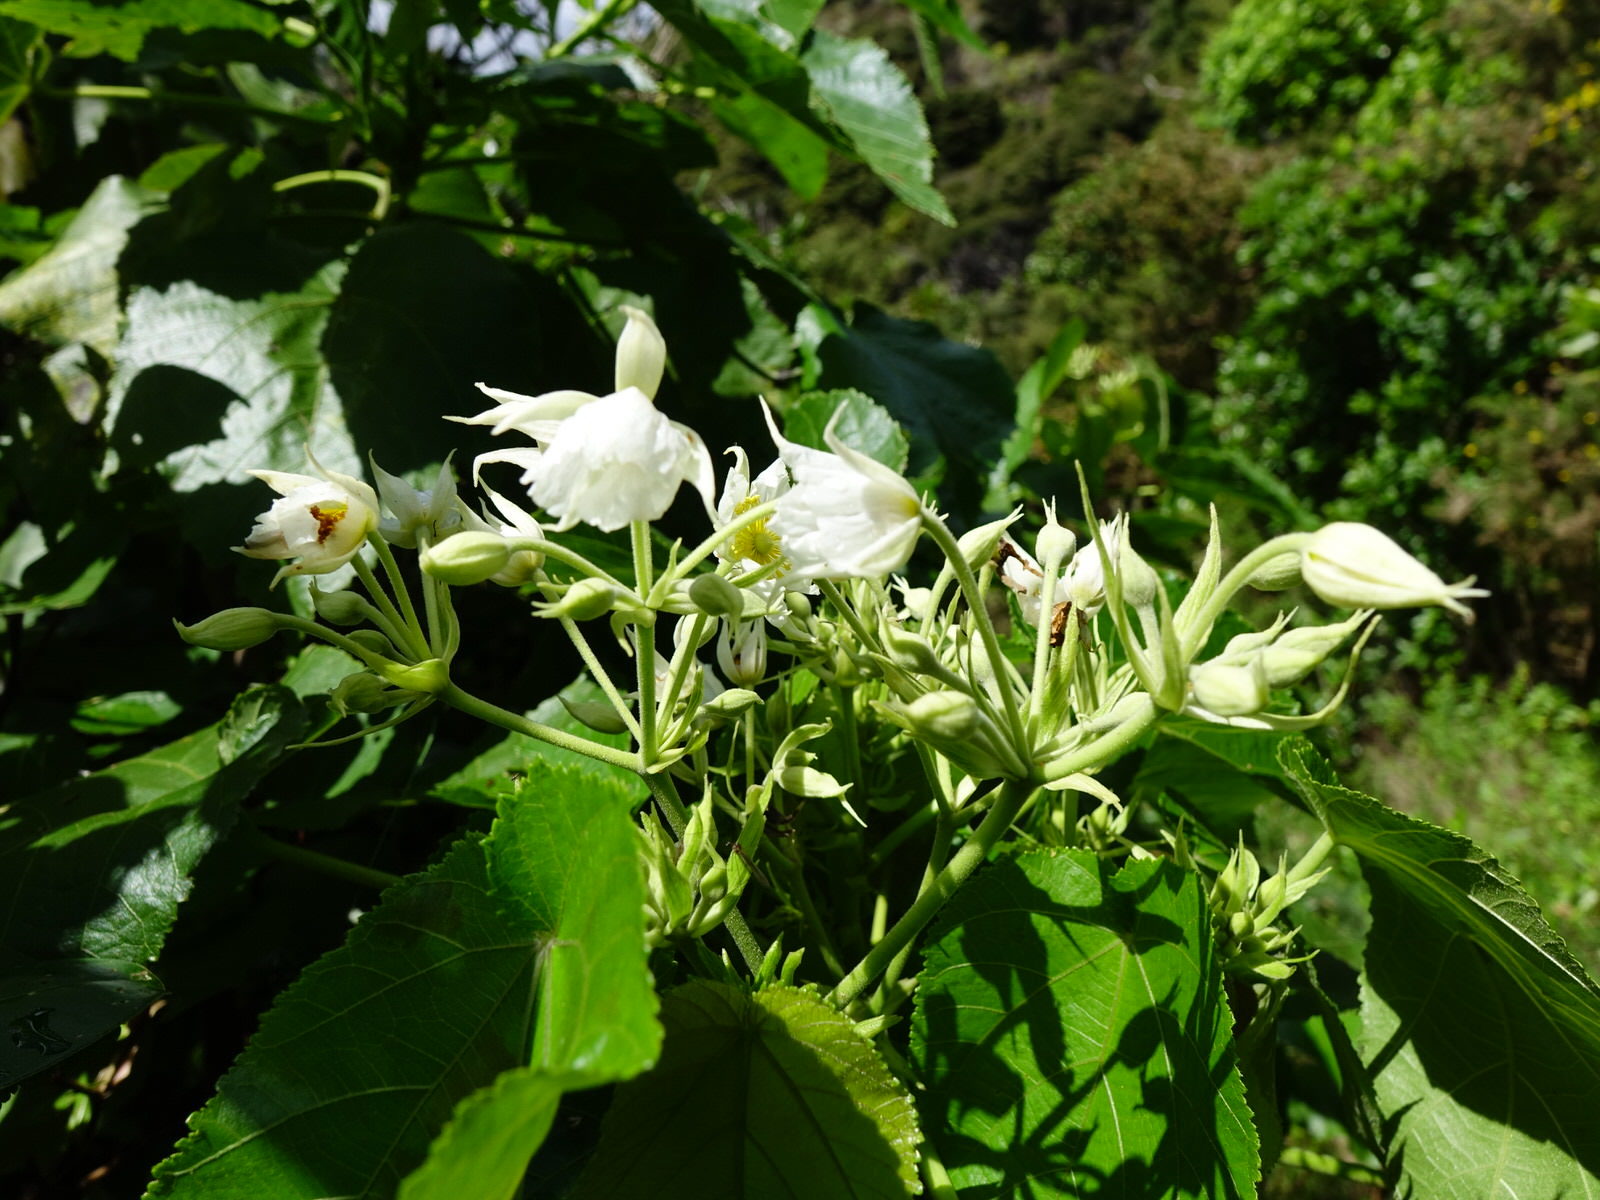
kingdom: Plantae
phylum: Tracheophyta
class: Magnoliopsida
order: Malvales
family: Malvaceae
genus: Entelea
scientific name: Entelea arborescens
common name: New zealand-mulberry
